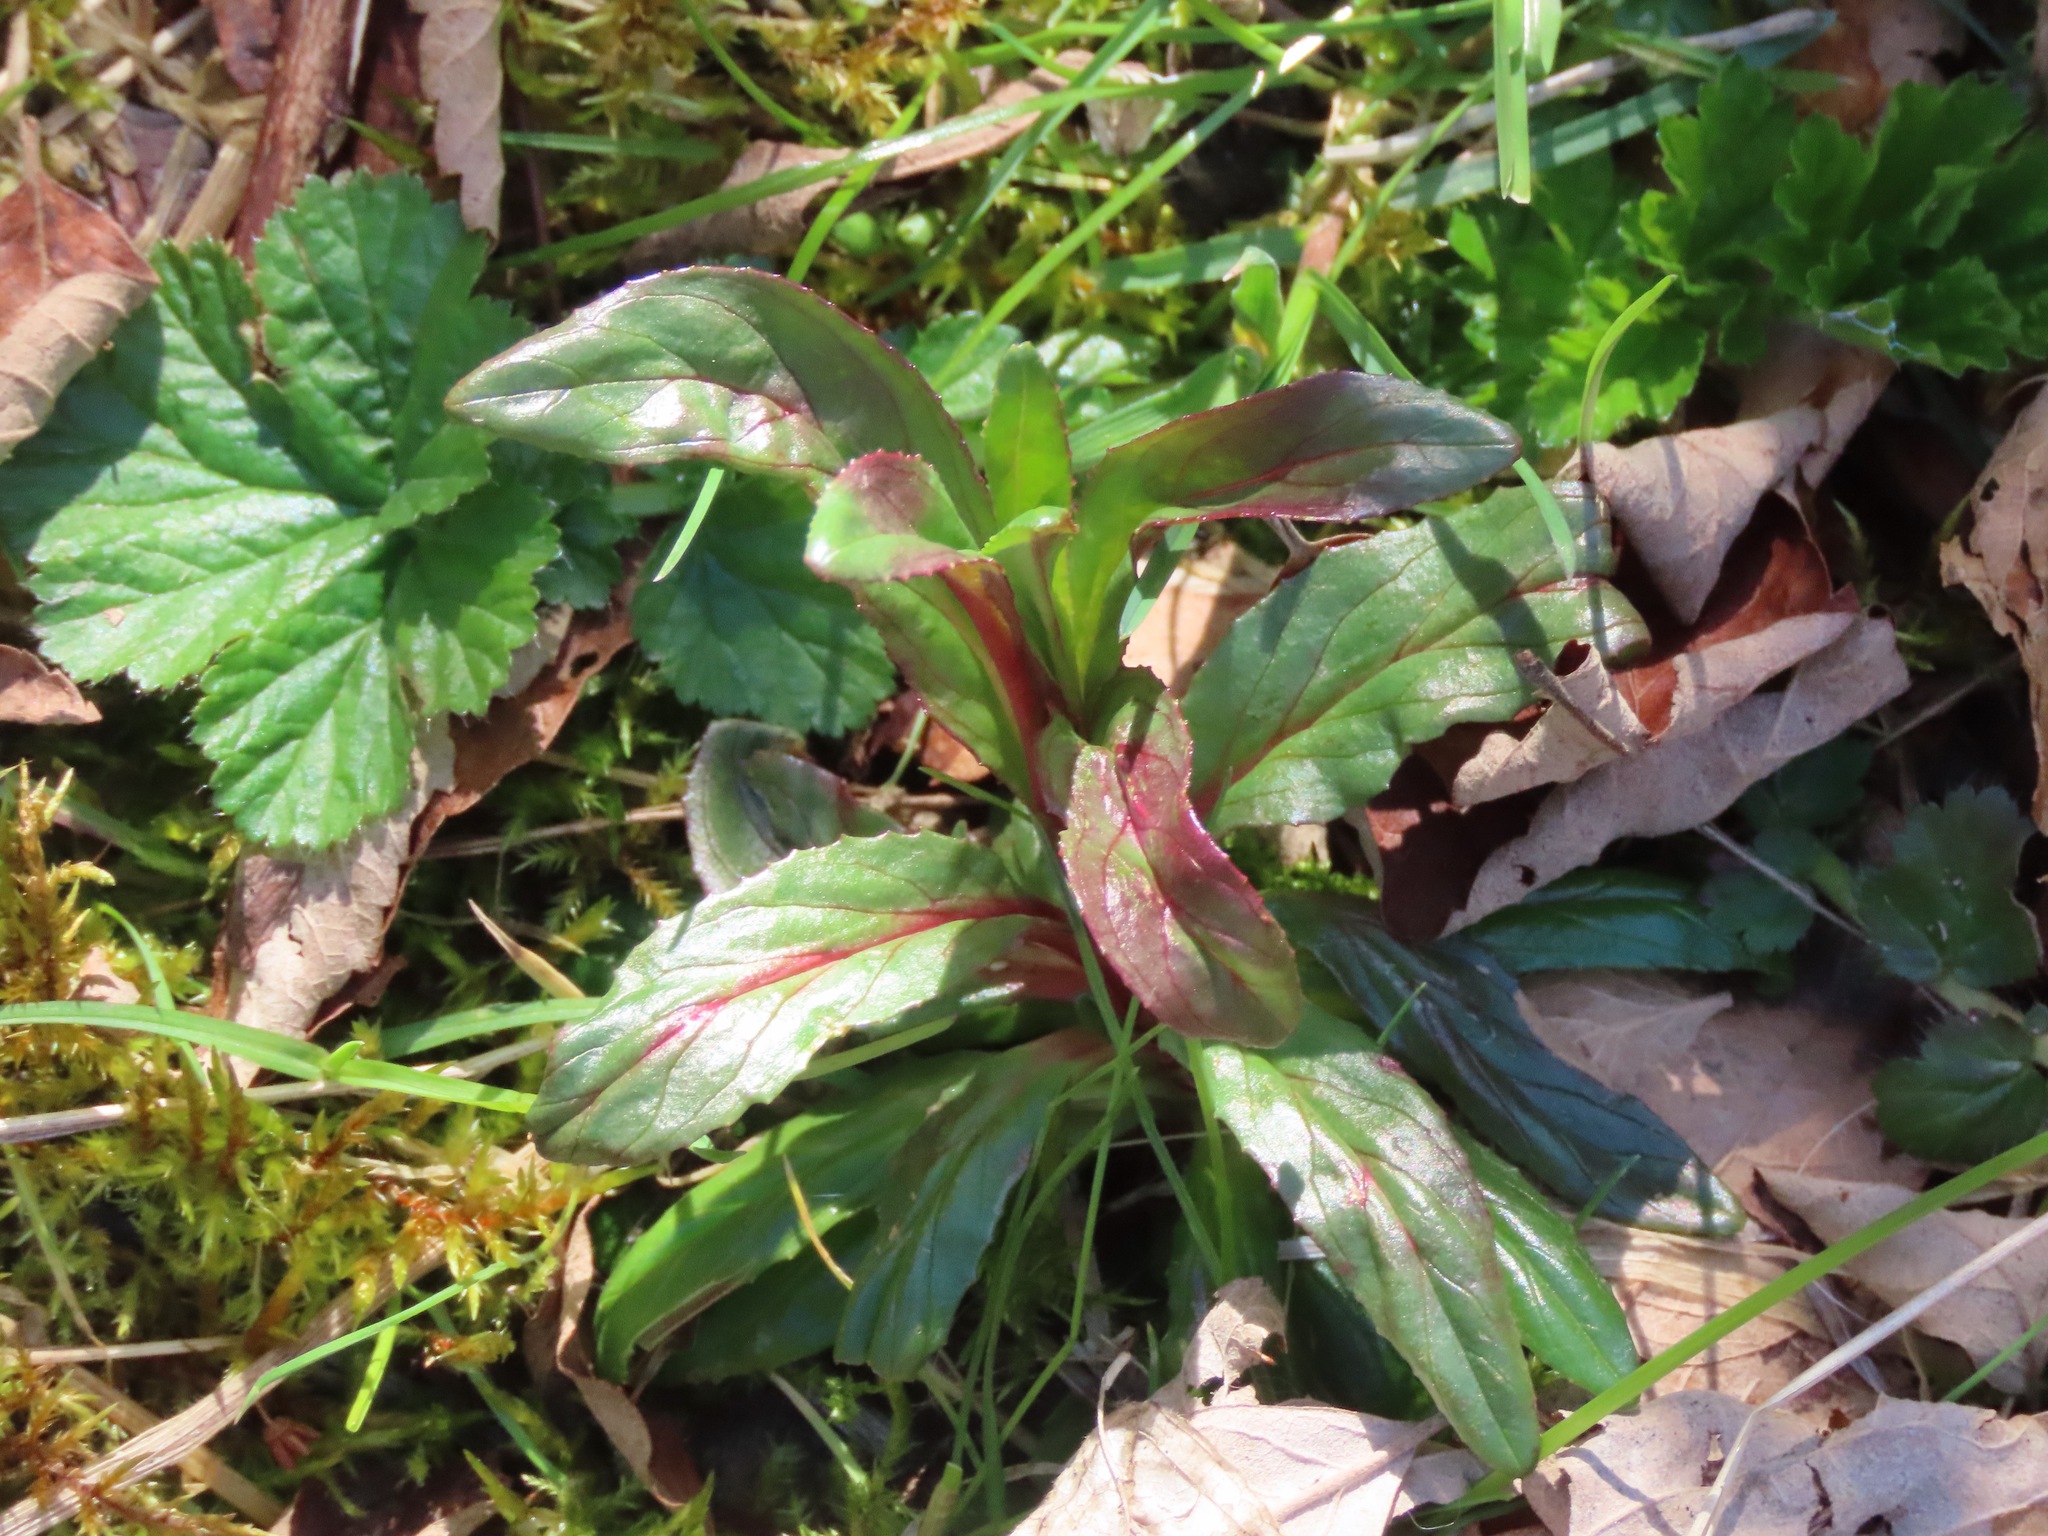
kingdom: Plantae
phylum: Tracheophyta
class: Magnoliopsida
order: Myrtales
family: Onagraceae
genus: Epilobium
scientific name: Epilobium ciliatum
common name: American willowherb
